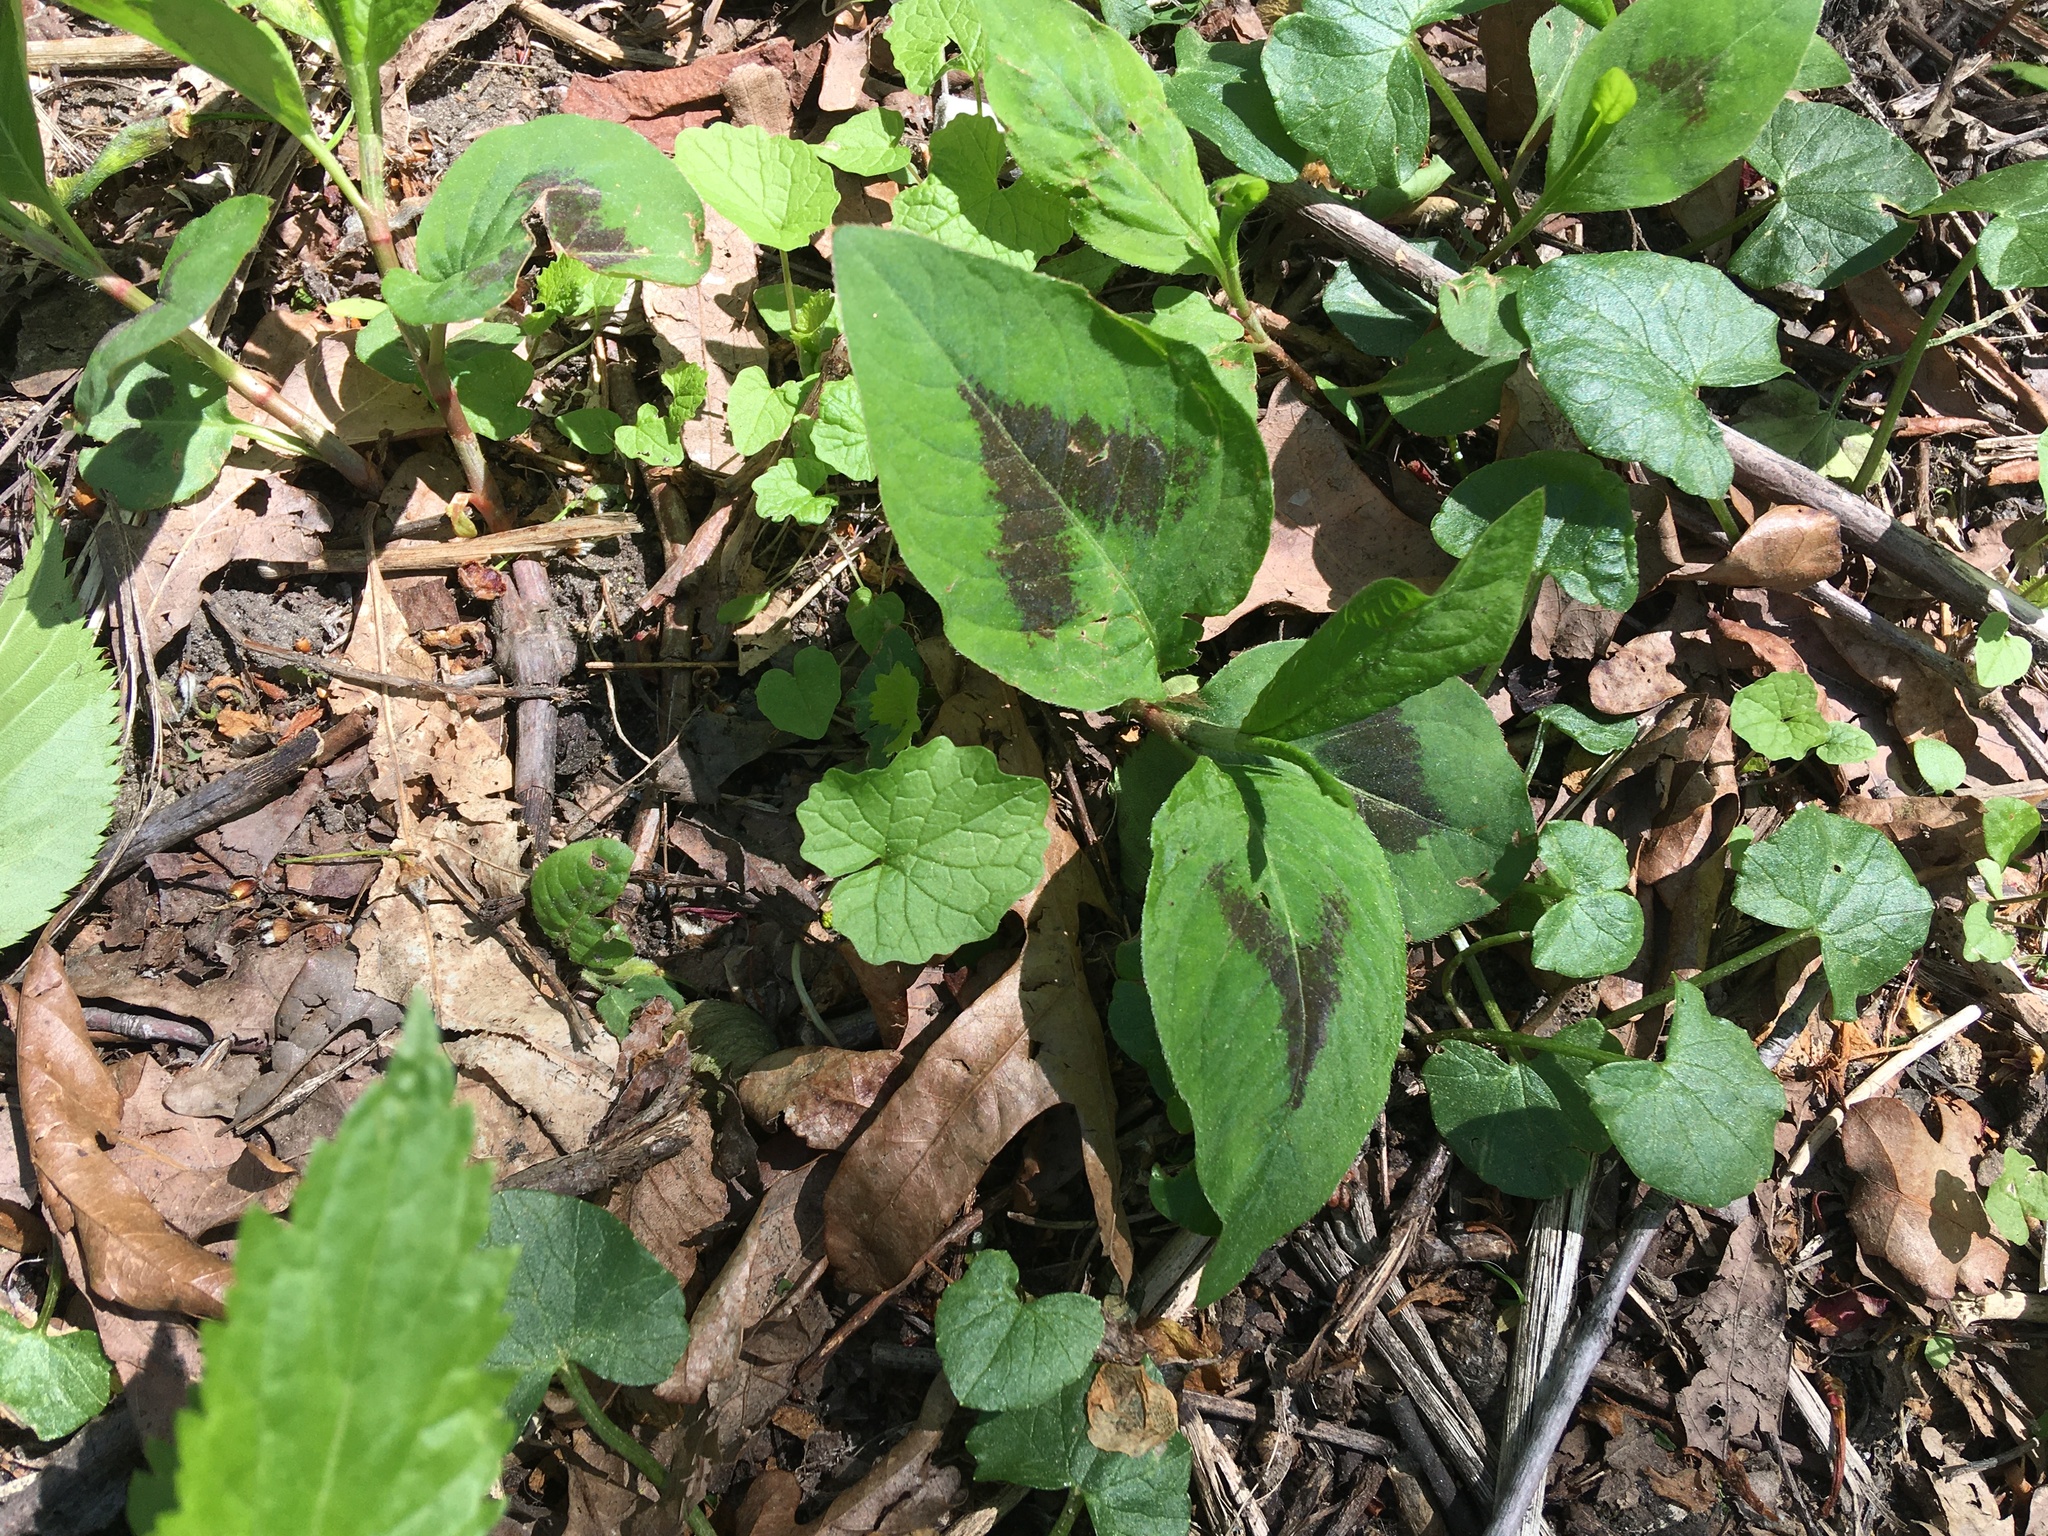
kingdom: Plantae
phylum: Tracheophyta
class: Magnoliopsida
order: Caryophyllales
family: Polygonaceae
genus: Persicaria
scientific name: Persicaria virginiana
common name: Jumpseed
